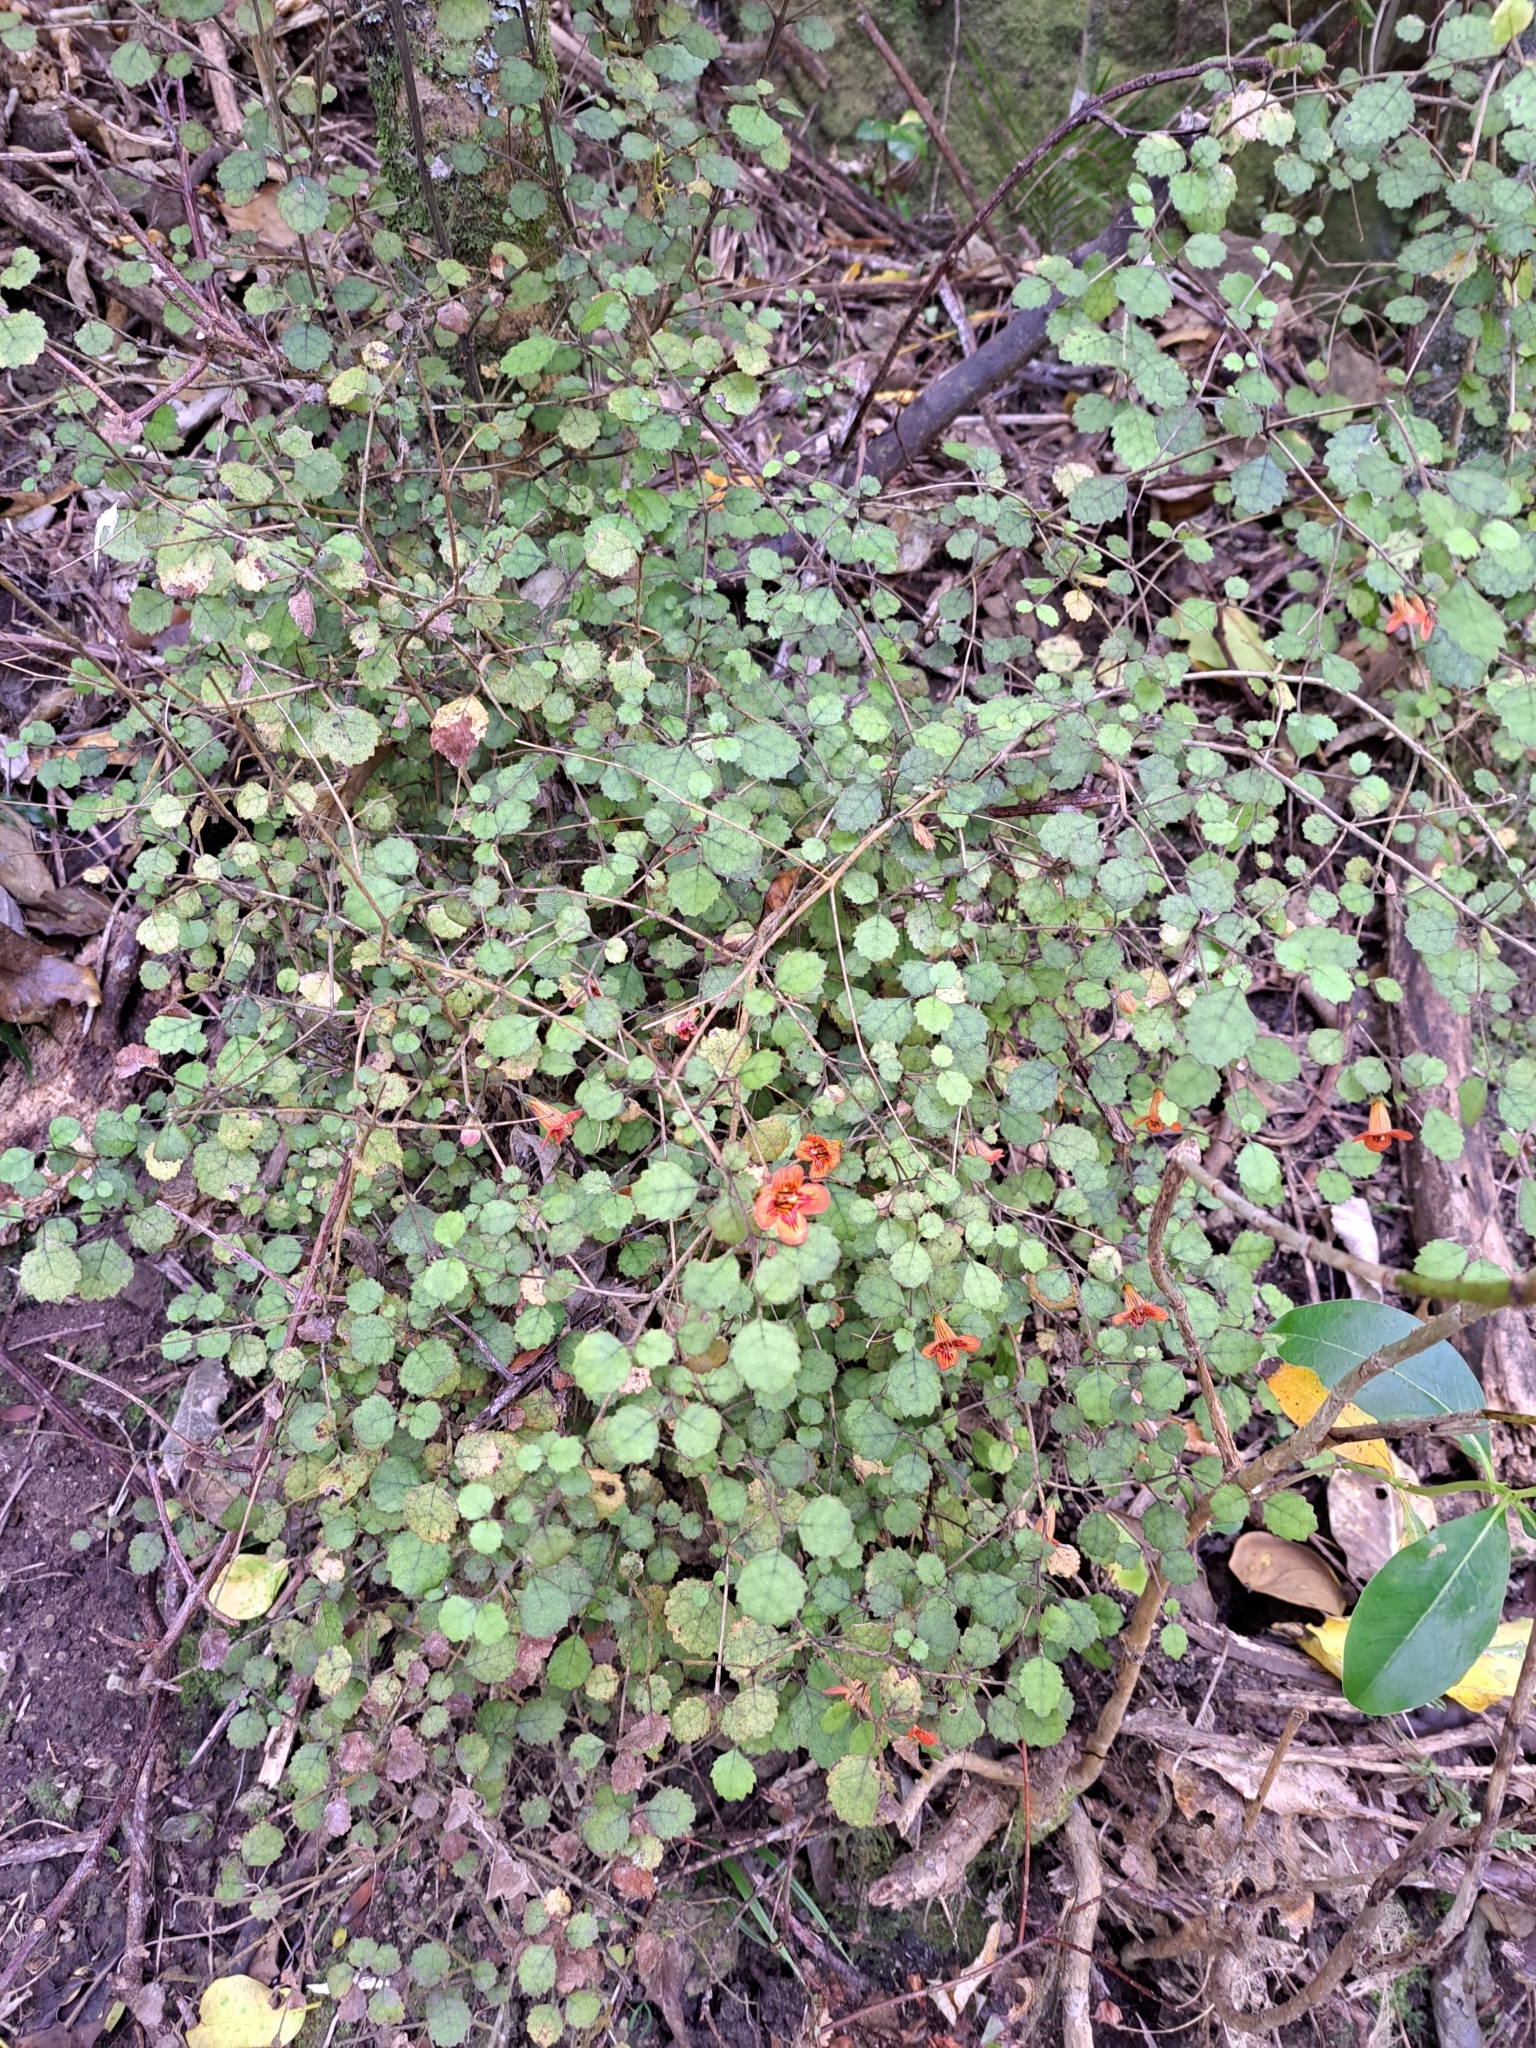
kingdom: Plantae
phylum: Tracheophyta
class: Magnoliopsida
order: Lamiales
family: Gesneriaceae
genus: Rhabdothamnus
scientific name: Rhabdothamnus solandri
